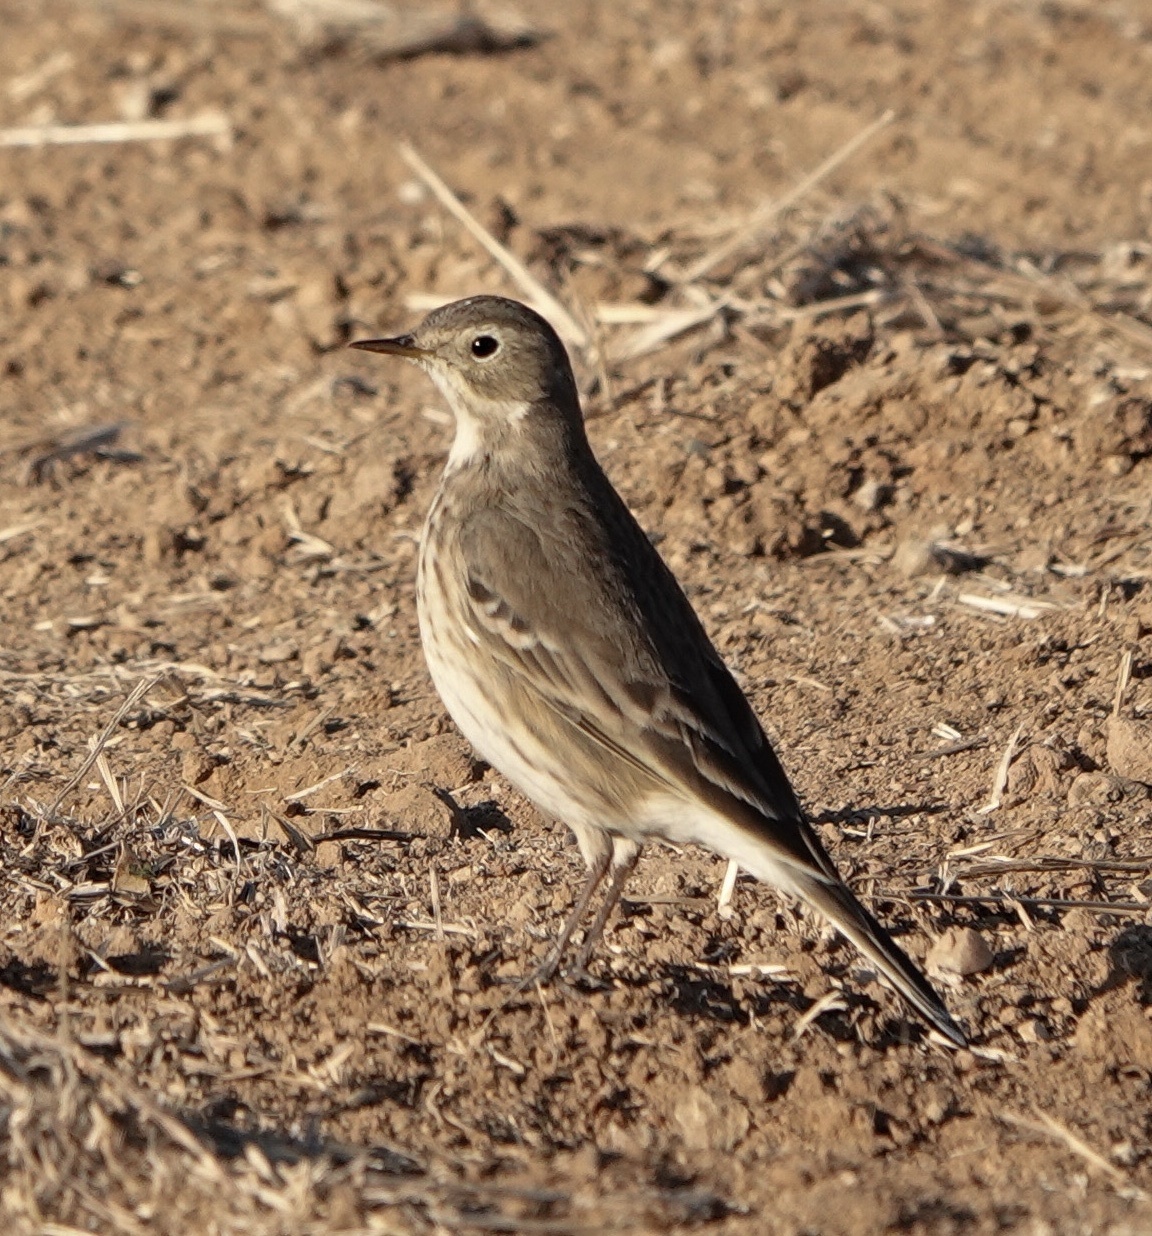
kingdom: Animalia
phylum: Chordata
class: Aves
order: Passeriformes
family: Motacillidae
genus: Anthus
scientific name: Anthus rubescens
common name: Buff-bellied pipit
